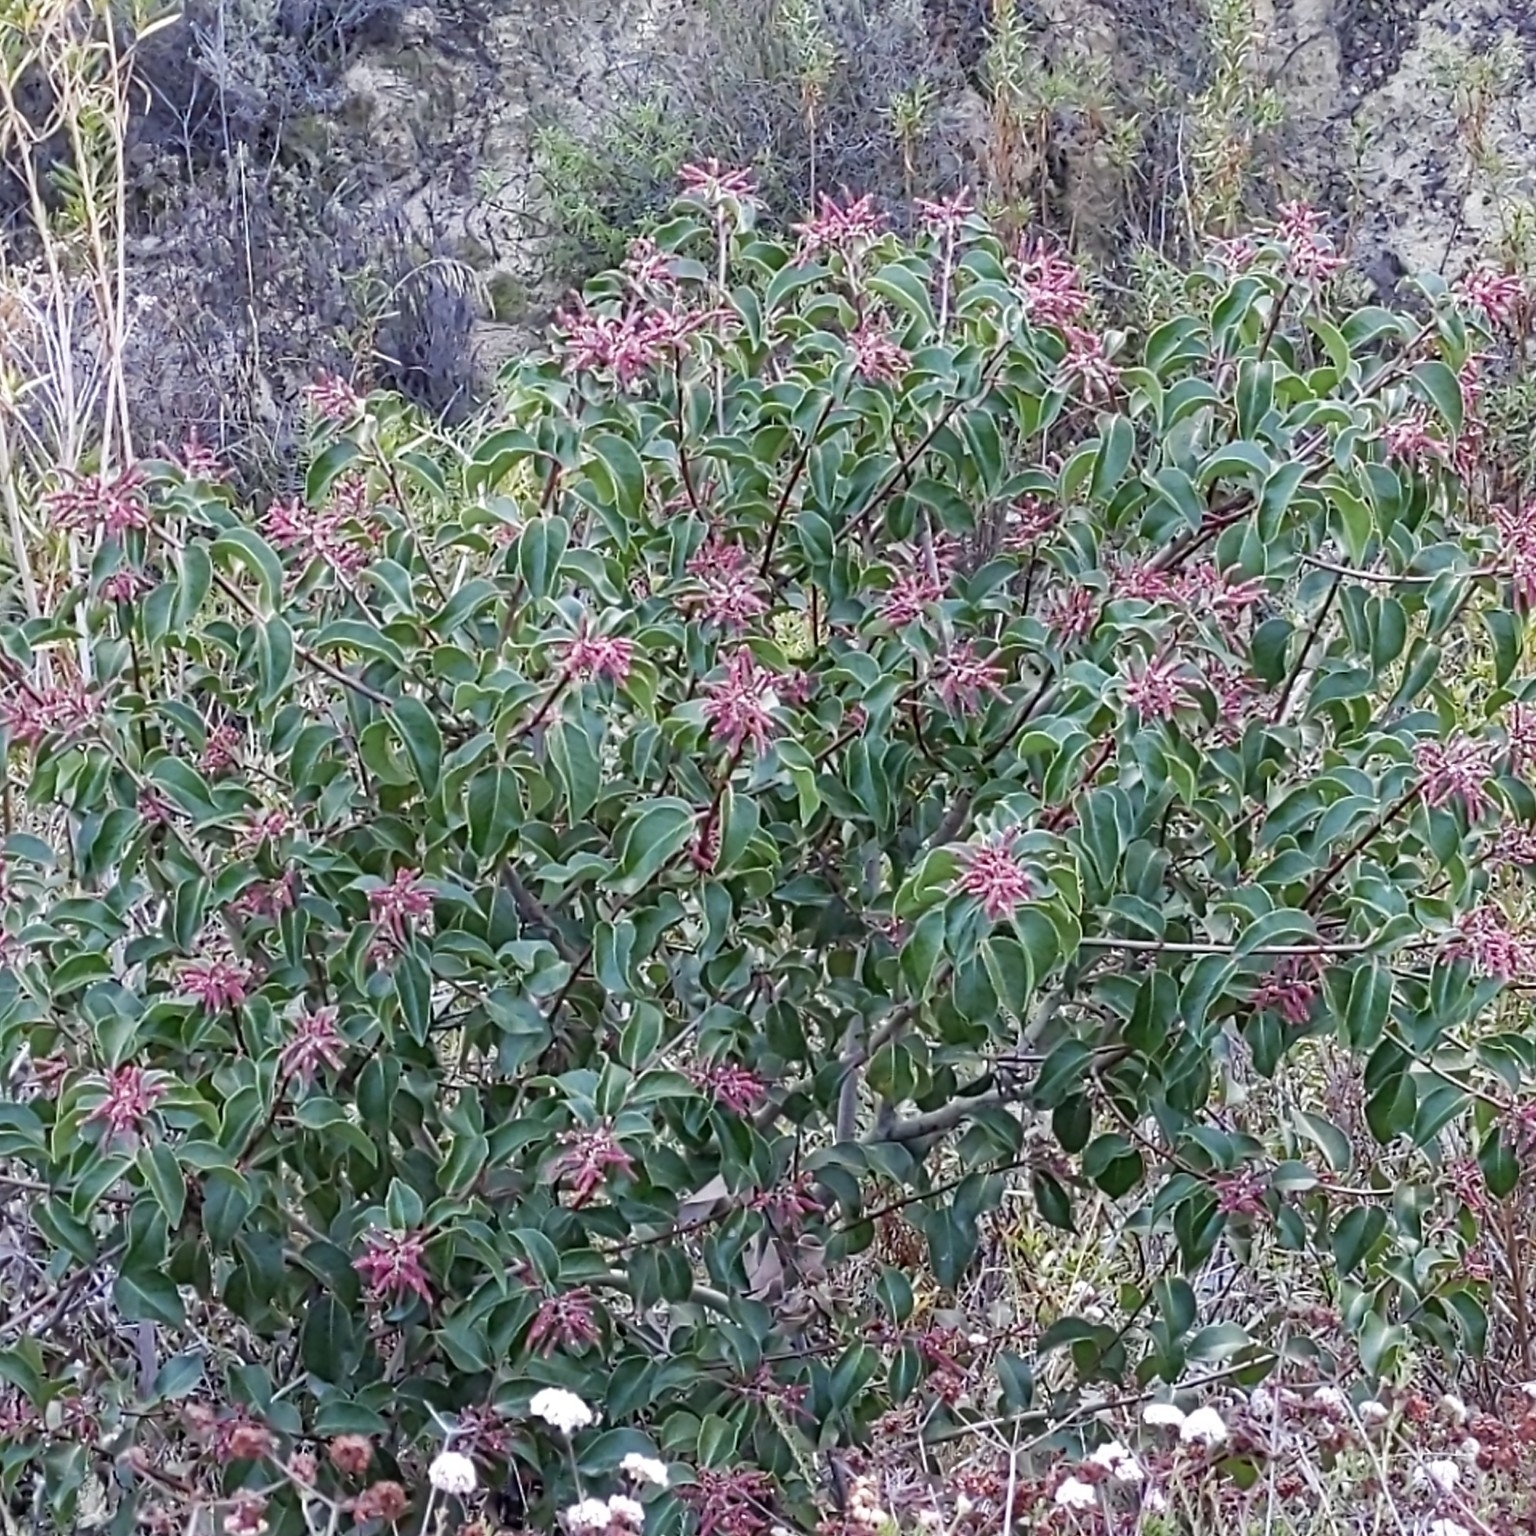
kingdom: Plantae
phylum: Tracheophyta
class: Magnoliopsida
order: Sapindales
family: Anacardiaceae
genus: Rhus
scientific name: Rhus ovata
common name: Sugar sumac
